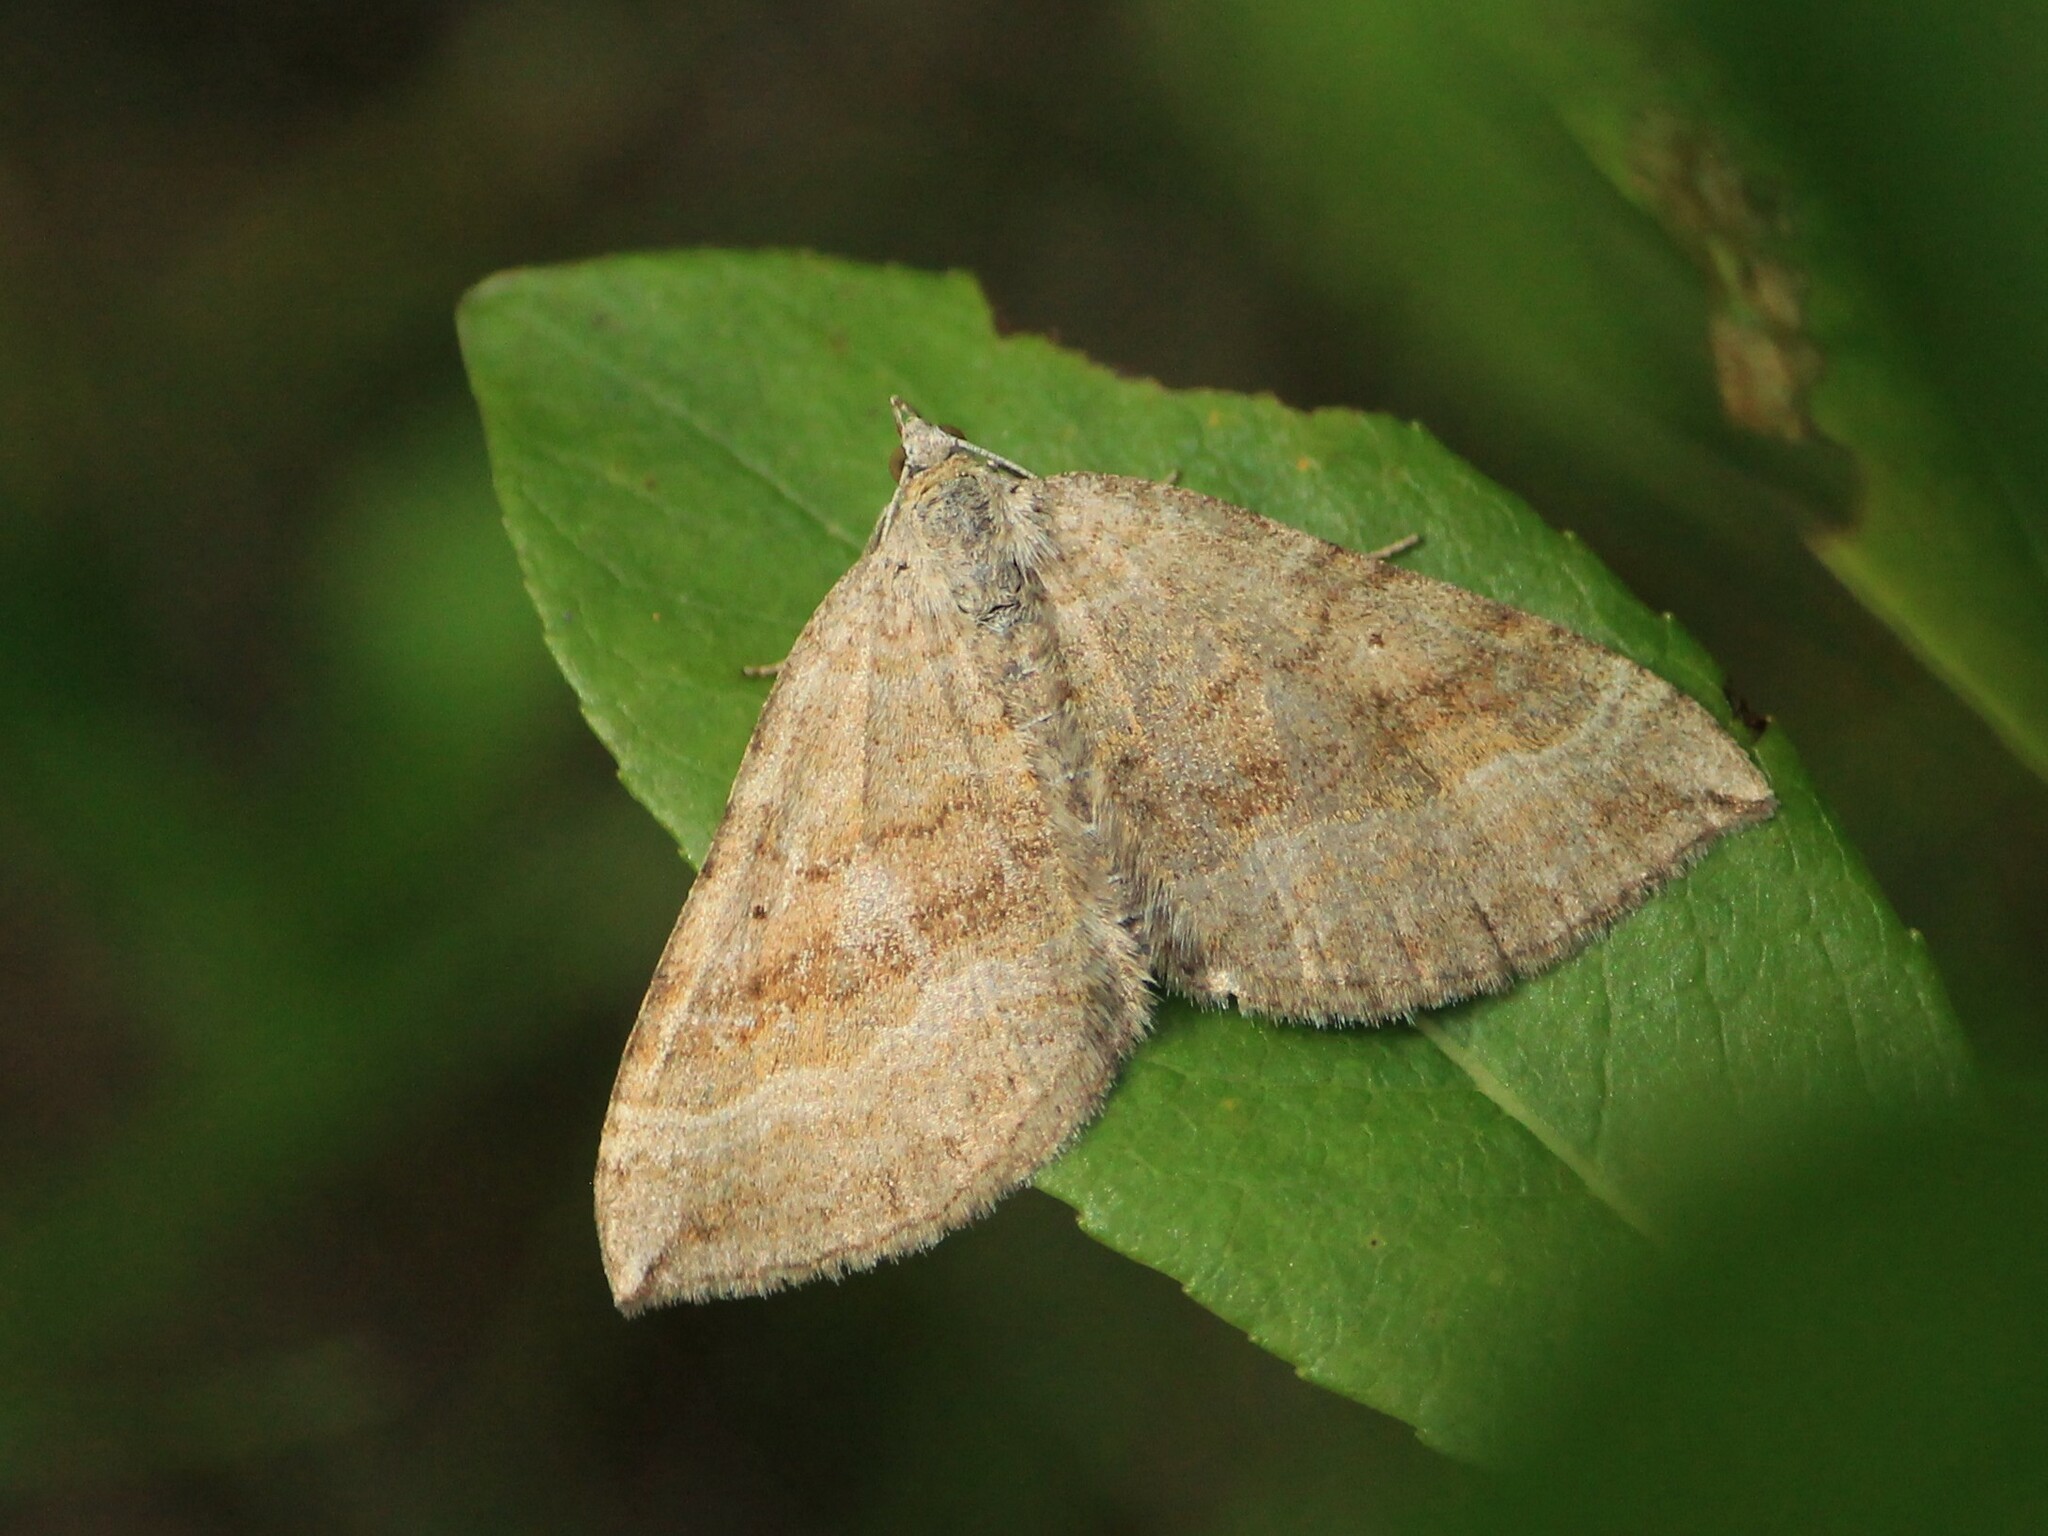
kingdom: Animalia
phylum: Arthropoda
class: Insecta
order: Lepidoptera
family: Geometridae
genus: Scotopteryx
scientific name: Scotopteryx chenopodiata
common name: Shaded broad-bar
